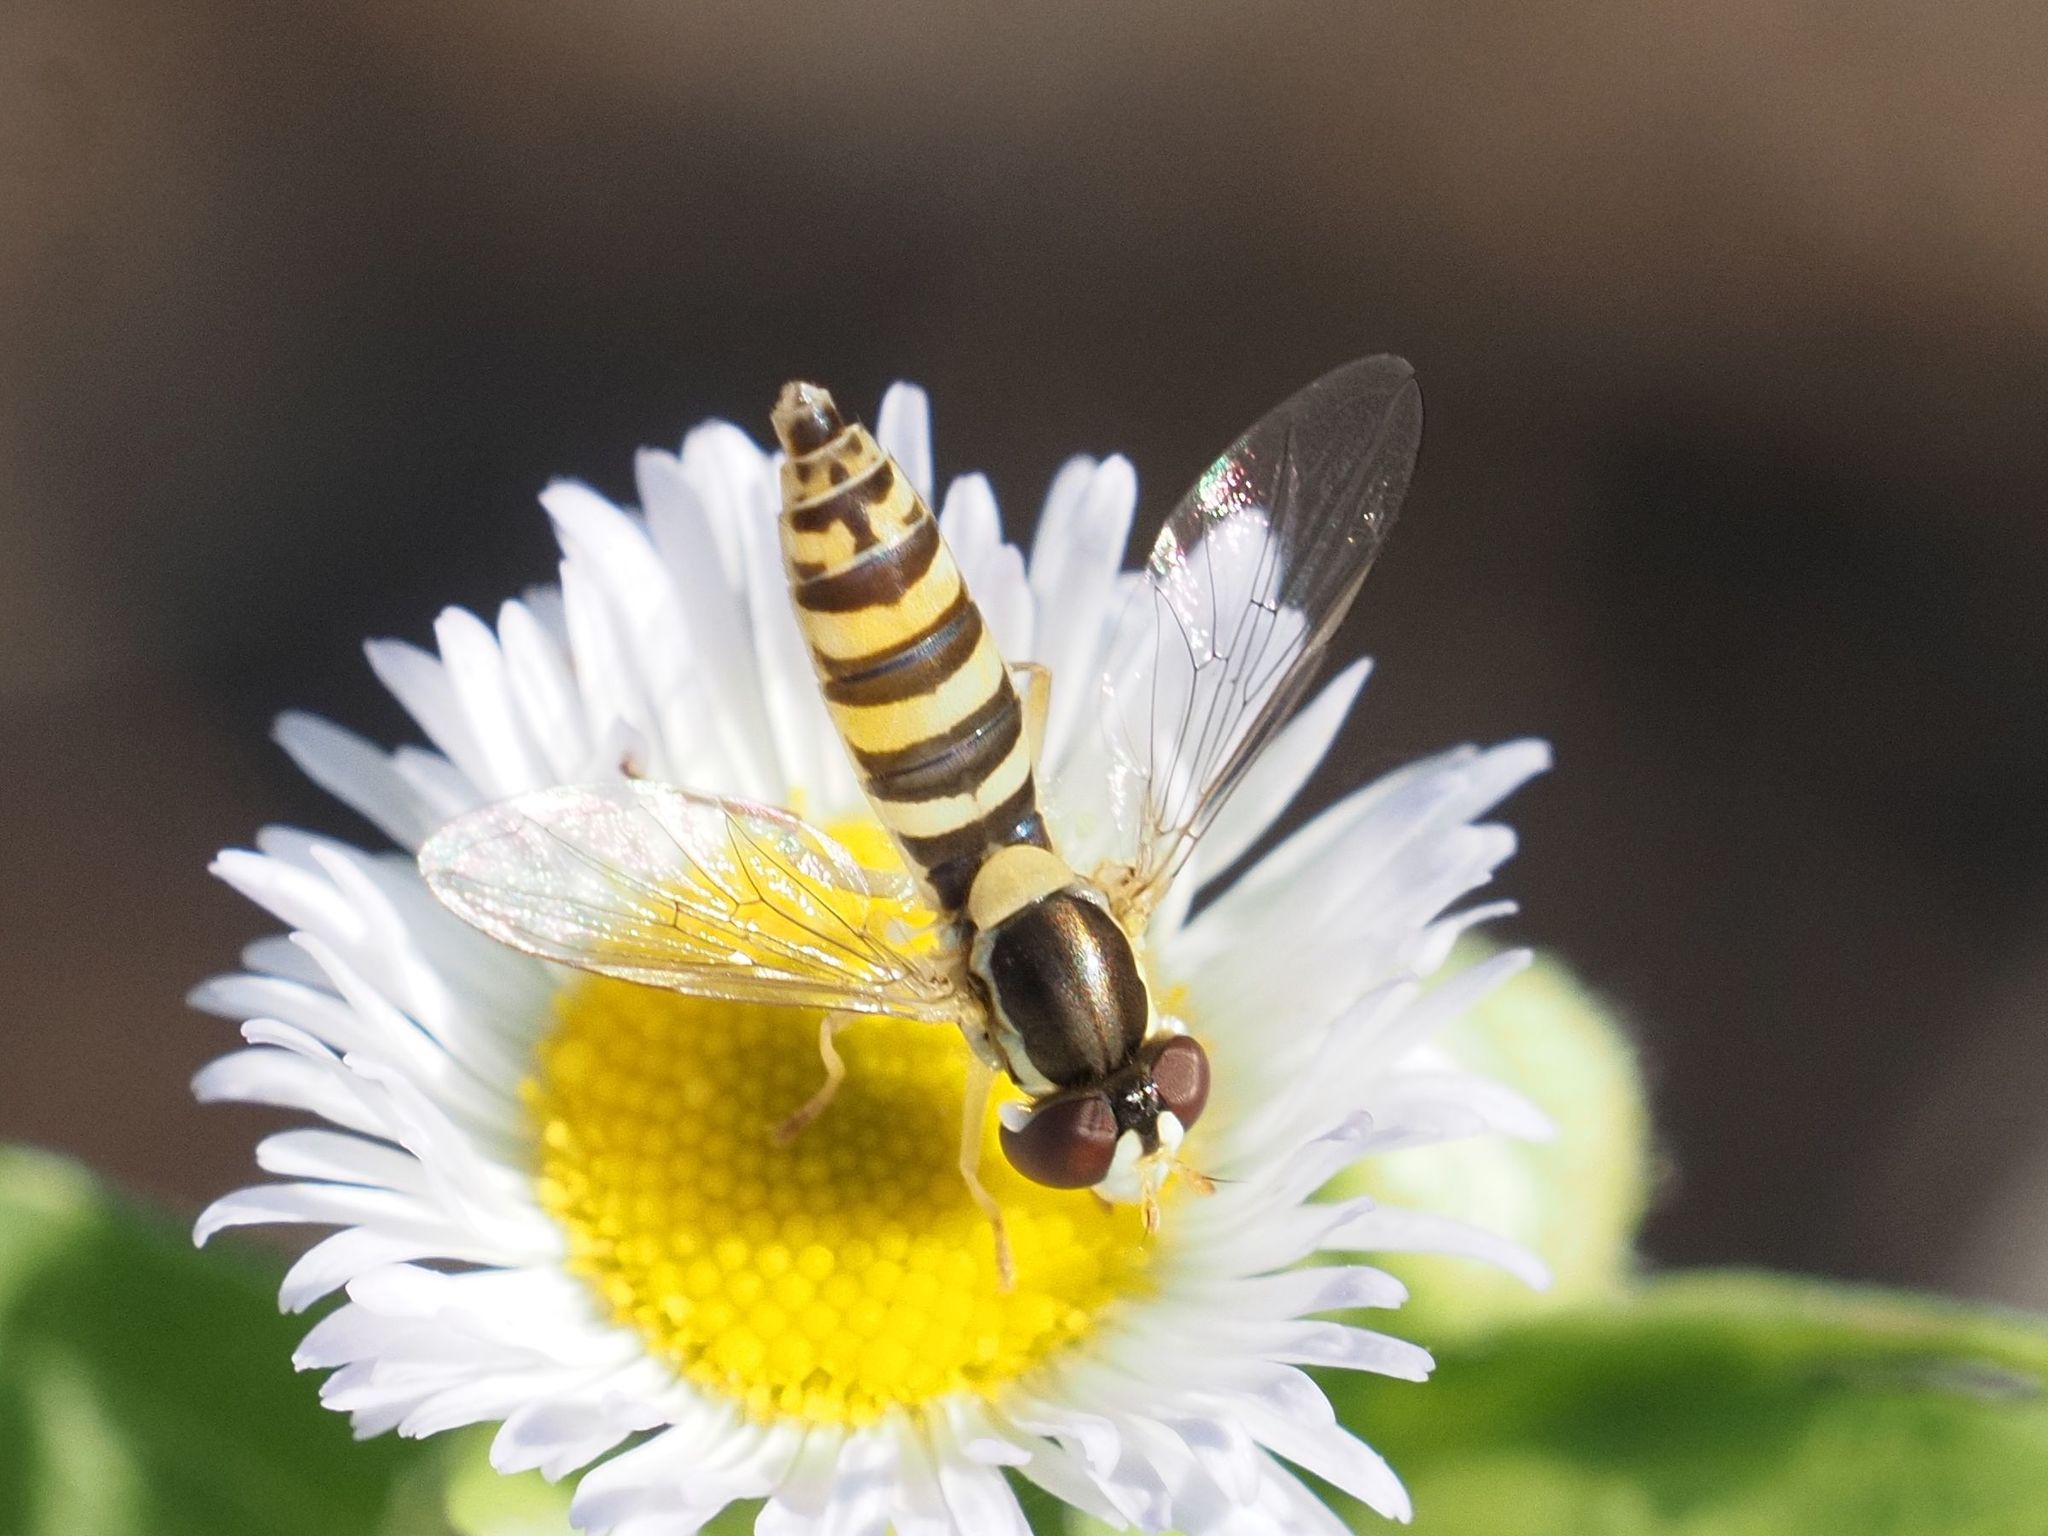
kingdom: Animalia
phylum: Arthropoda
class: Insecta
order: Diptera
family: Syrphidae
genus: Sphaerophoria
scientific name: Sphaerophoria
